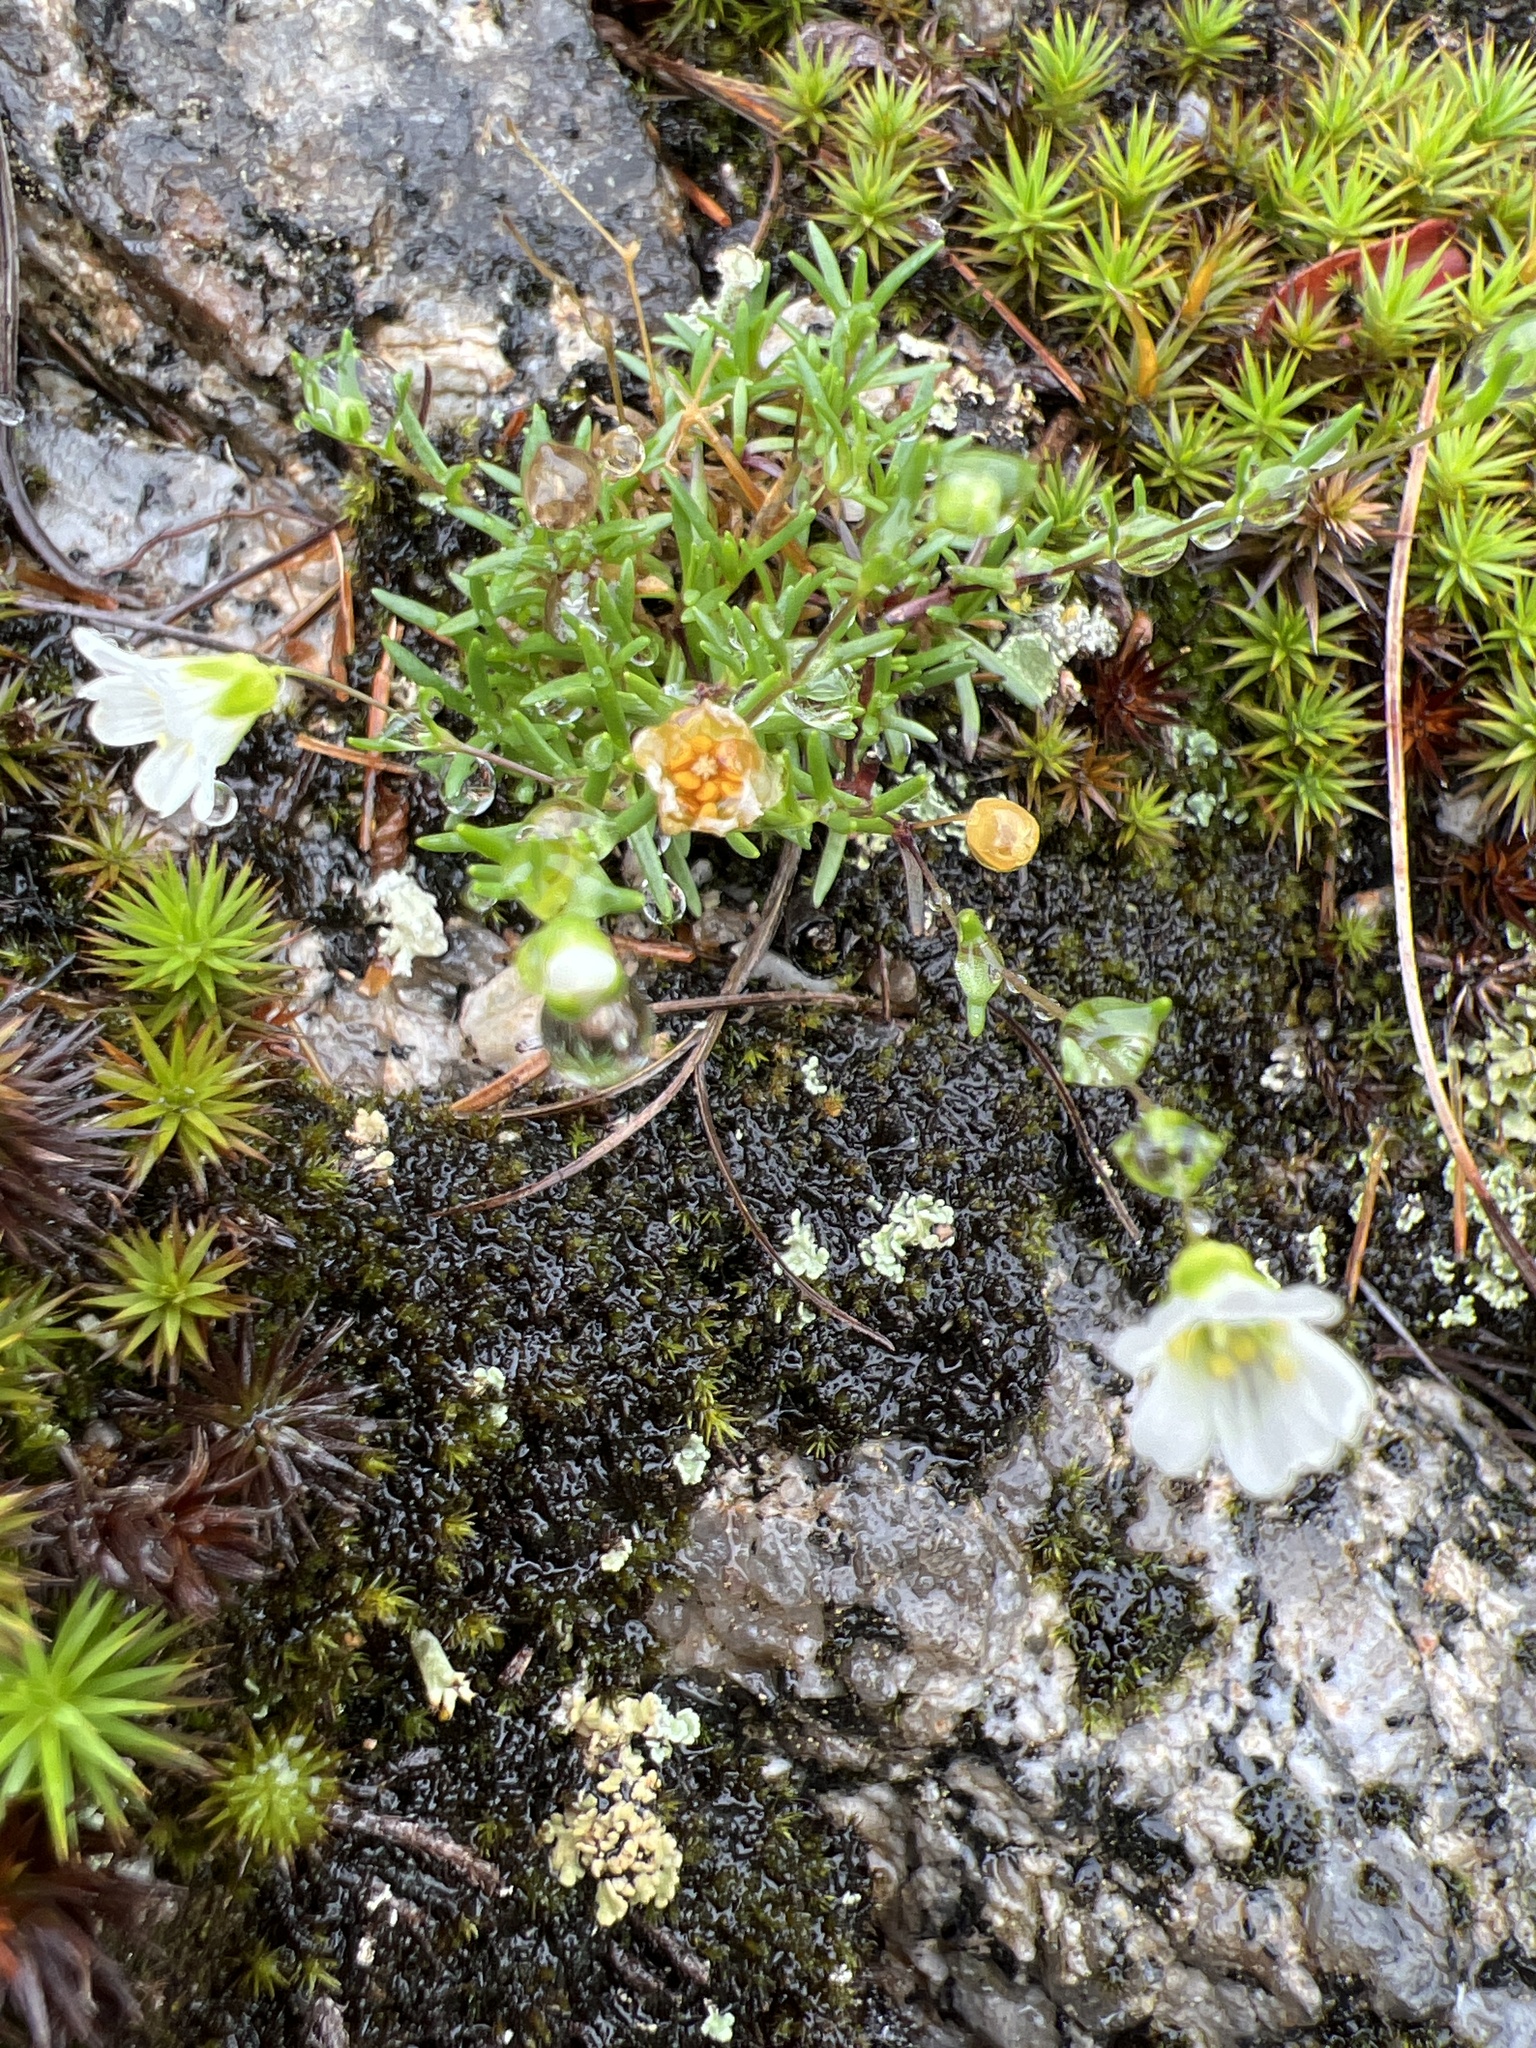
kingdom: Plantae
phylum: Tracheophyta
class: Magnoliopsida
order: Caryophyllales
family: Caryophyllaceae
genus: Geocarpon
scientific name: Geocarpon groenlandicum
